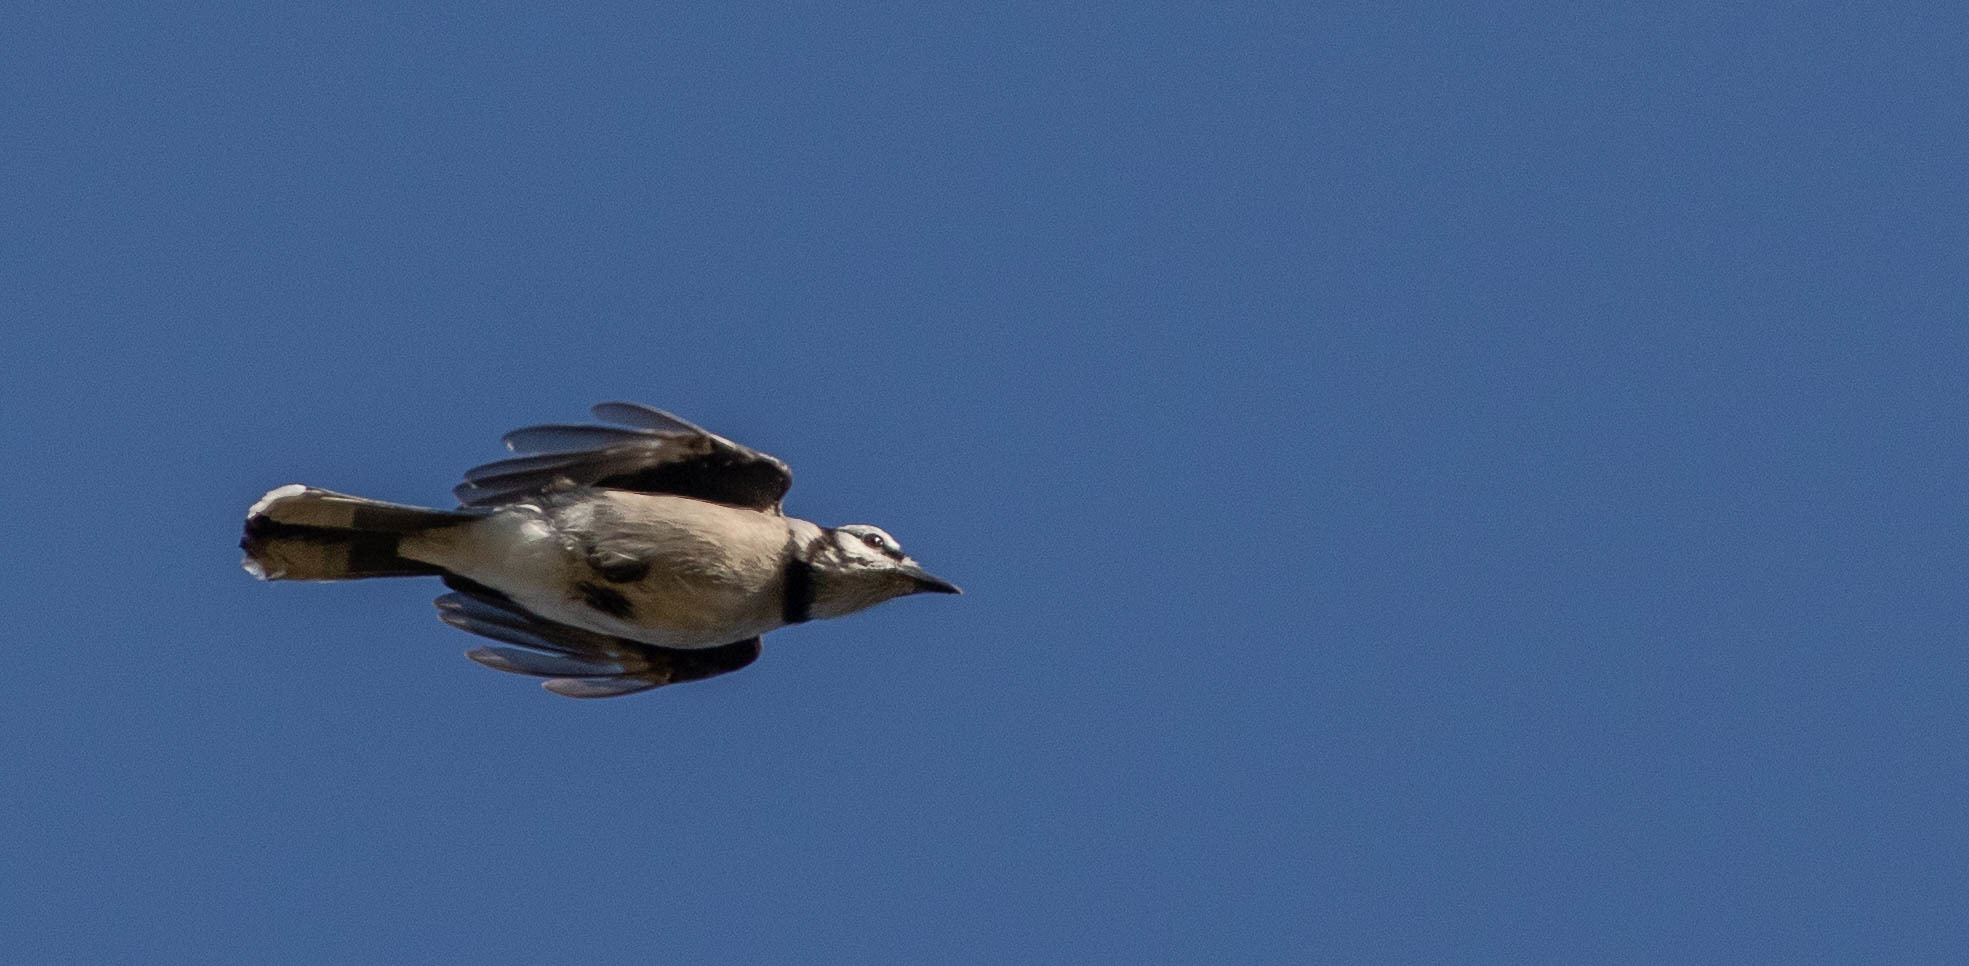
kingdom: Animalia
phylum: Chordata
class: Aves
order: Passeriformes
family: Corvidae
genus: Cyanocitta
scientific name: Cyanocitta cristata
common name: Blue jay
